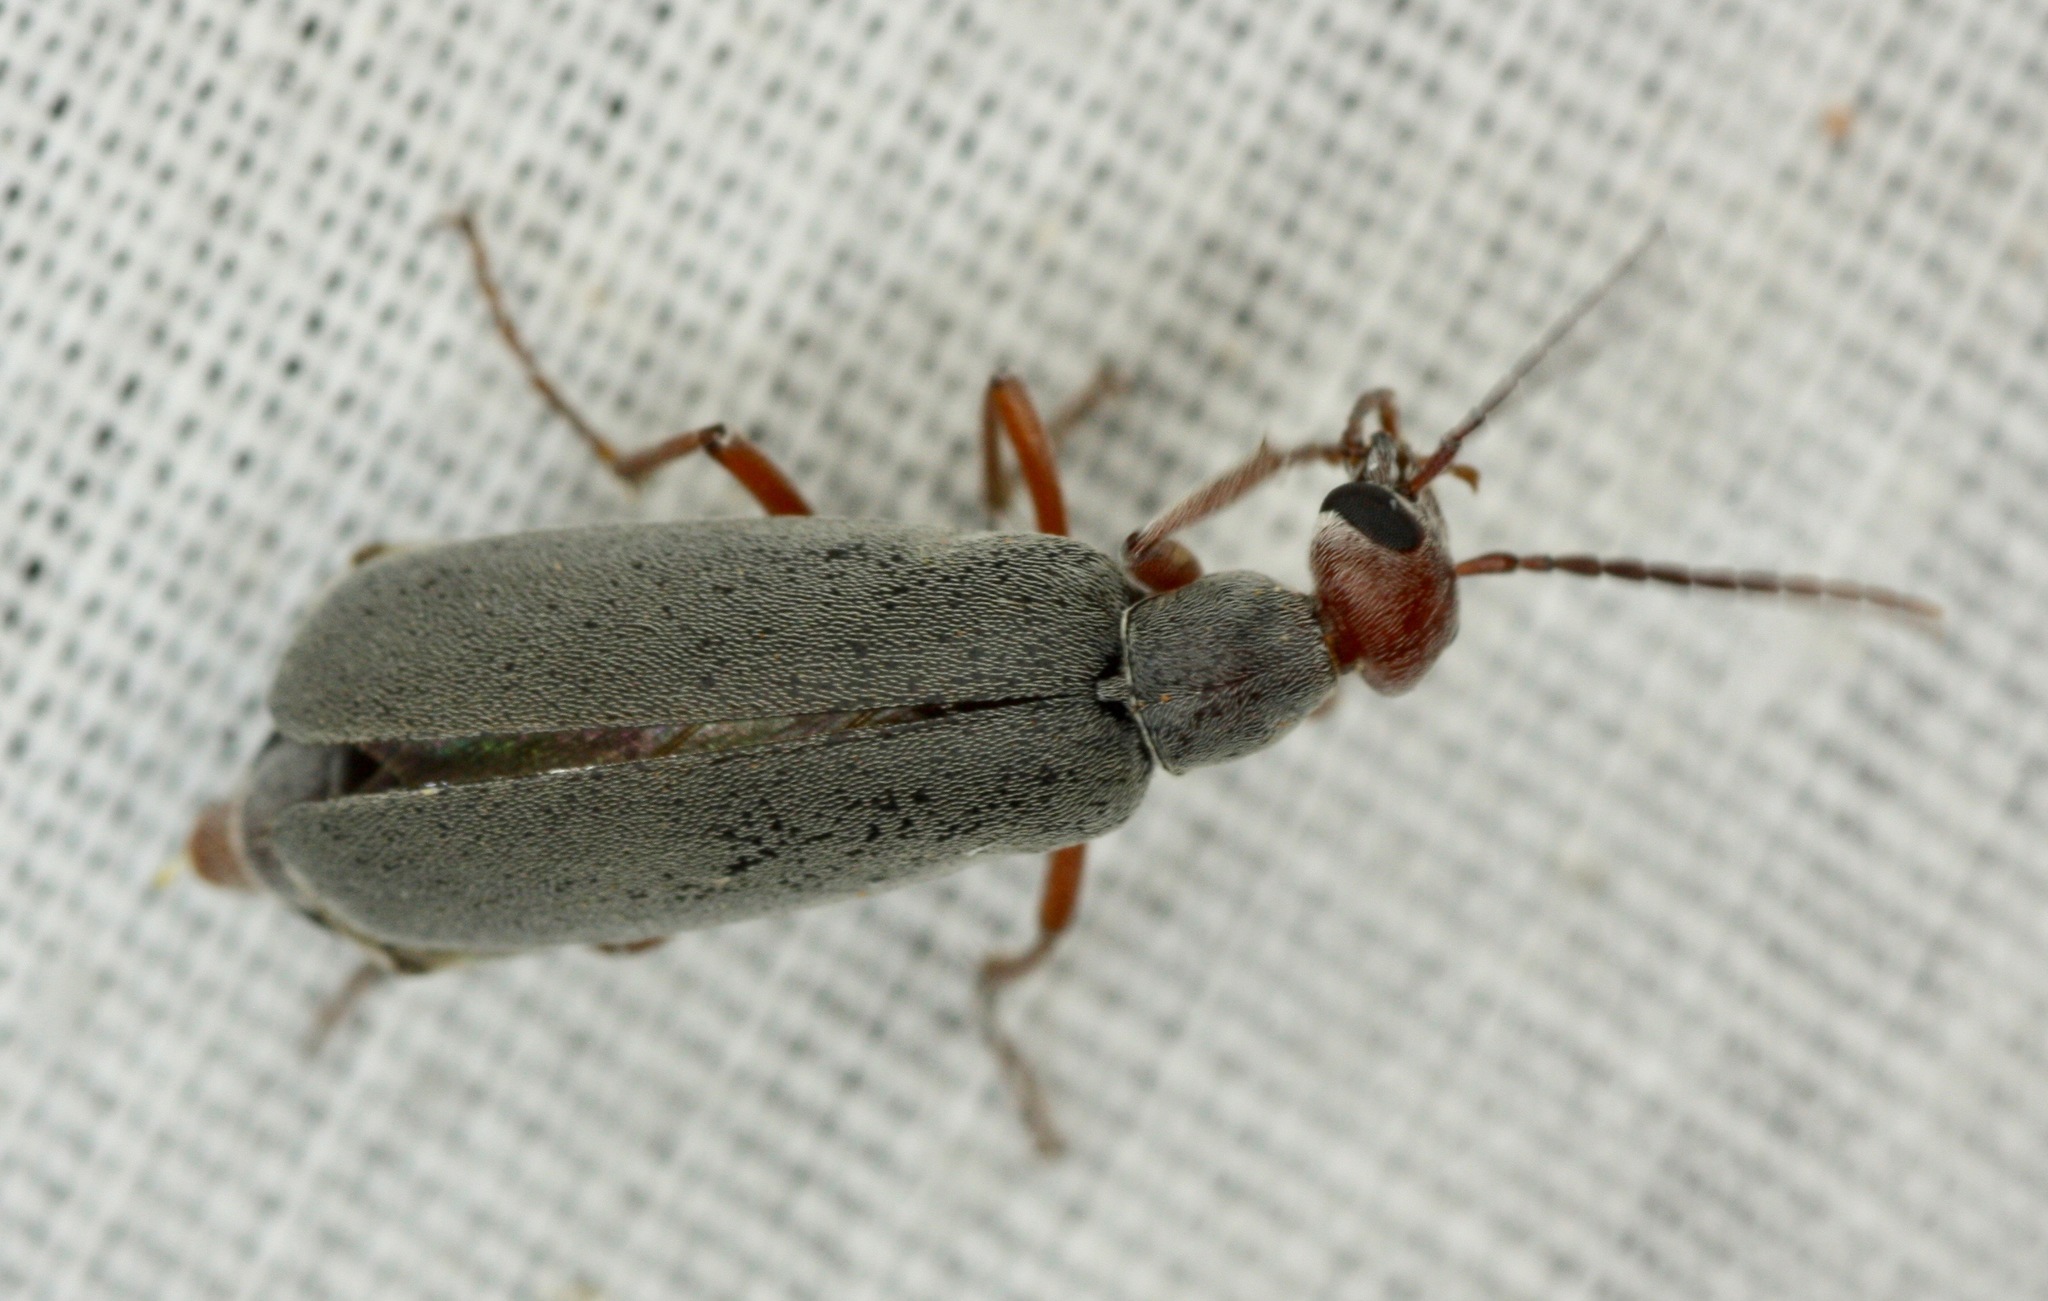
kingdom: Animalia
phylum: Arthropoda
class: Insecta
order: Coleoptera
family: Meloidae
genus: Epicauta
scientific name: Epicauta tenella
